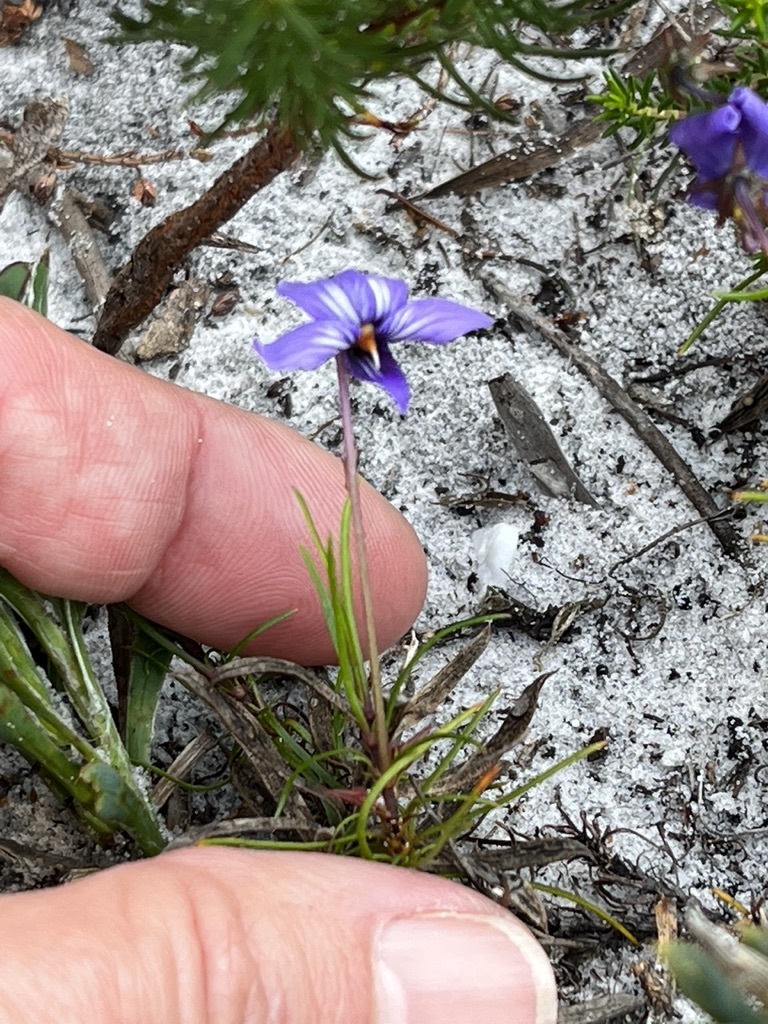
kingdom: Plantae
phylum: Tracheophyta
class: Magnoliopsida
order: Malpighiales
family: Violaceae
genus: Viola
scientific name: Viola decumbens
